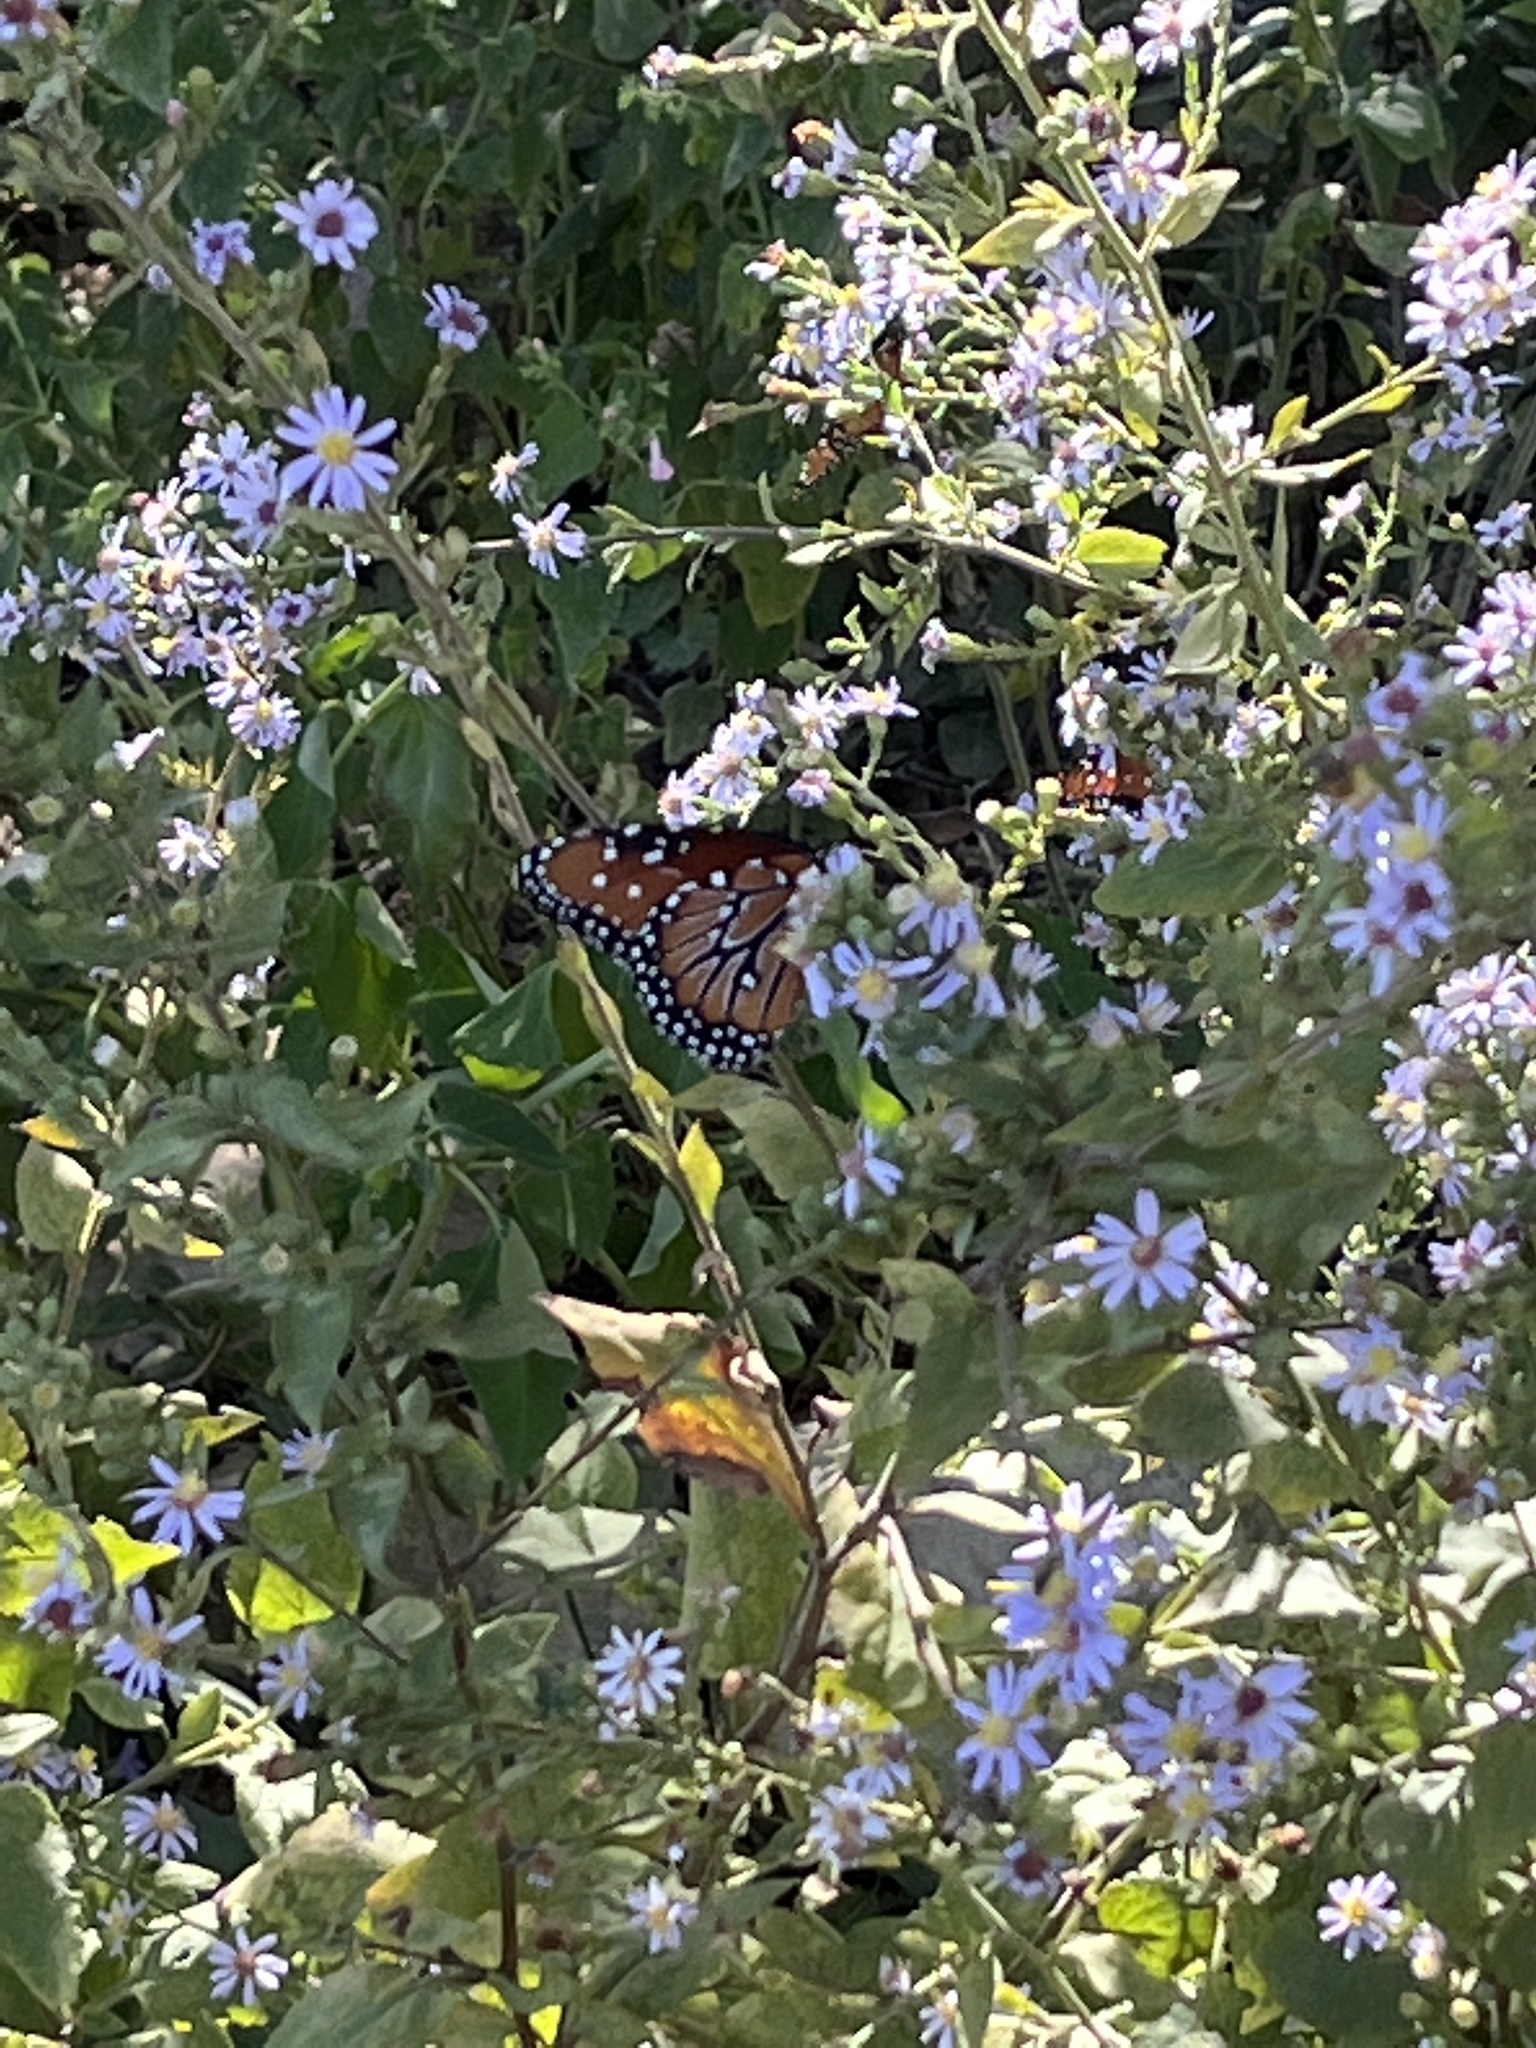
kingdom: Animalia
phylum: Arthropoda
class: Insecta
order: Lepidoptera
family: Nymphalidae
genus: Danaus
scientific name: Danaus gilippus
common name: Queen
